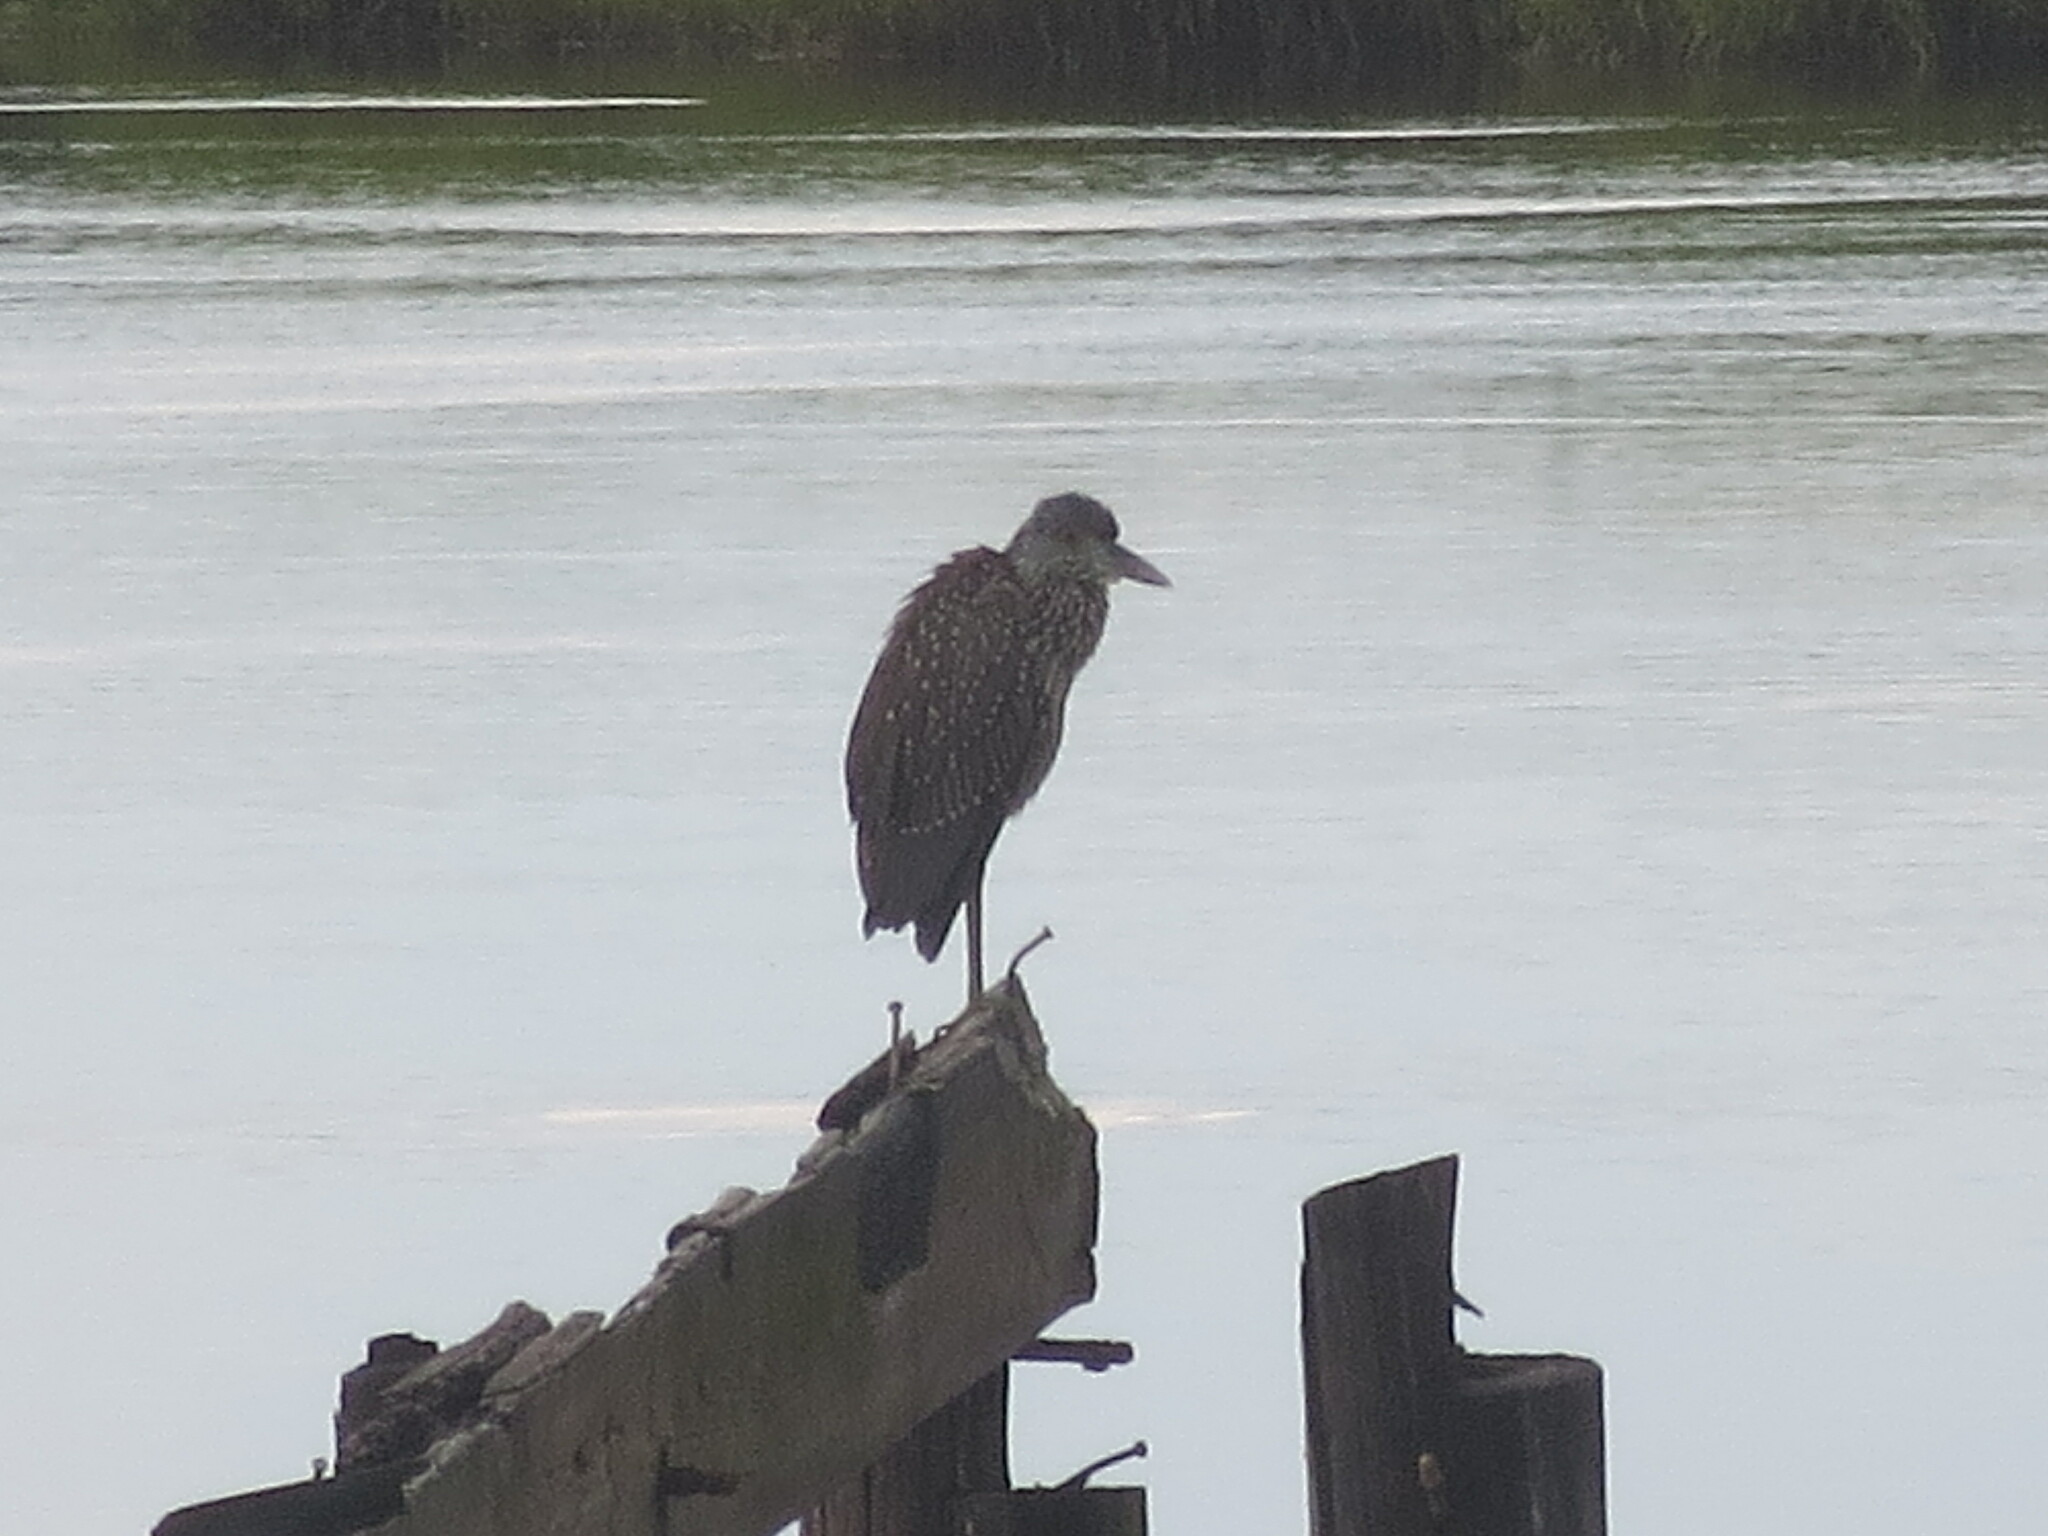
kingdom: Animalia
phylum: Chordata
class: Aves
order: Pelecaniformes
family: Ardeidae
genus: Nyctanassa
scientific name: Nyctanassa violacea
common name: Yellow-crowned night heron
